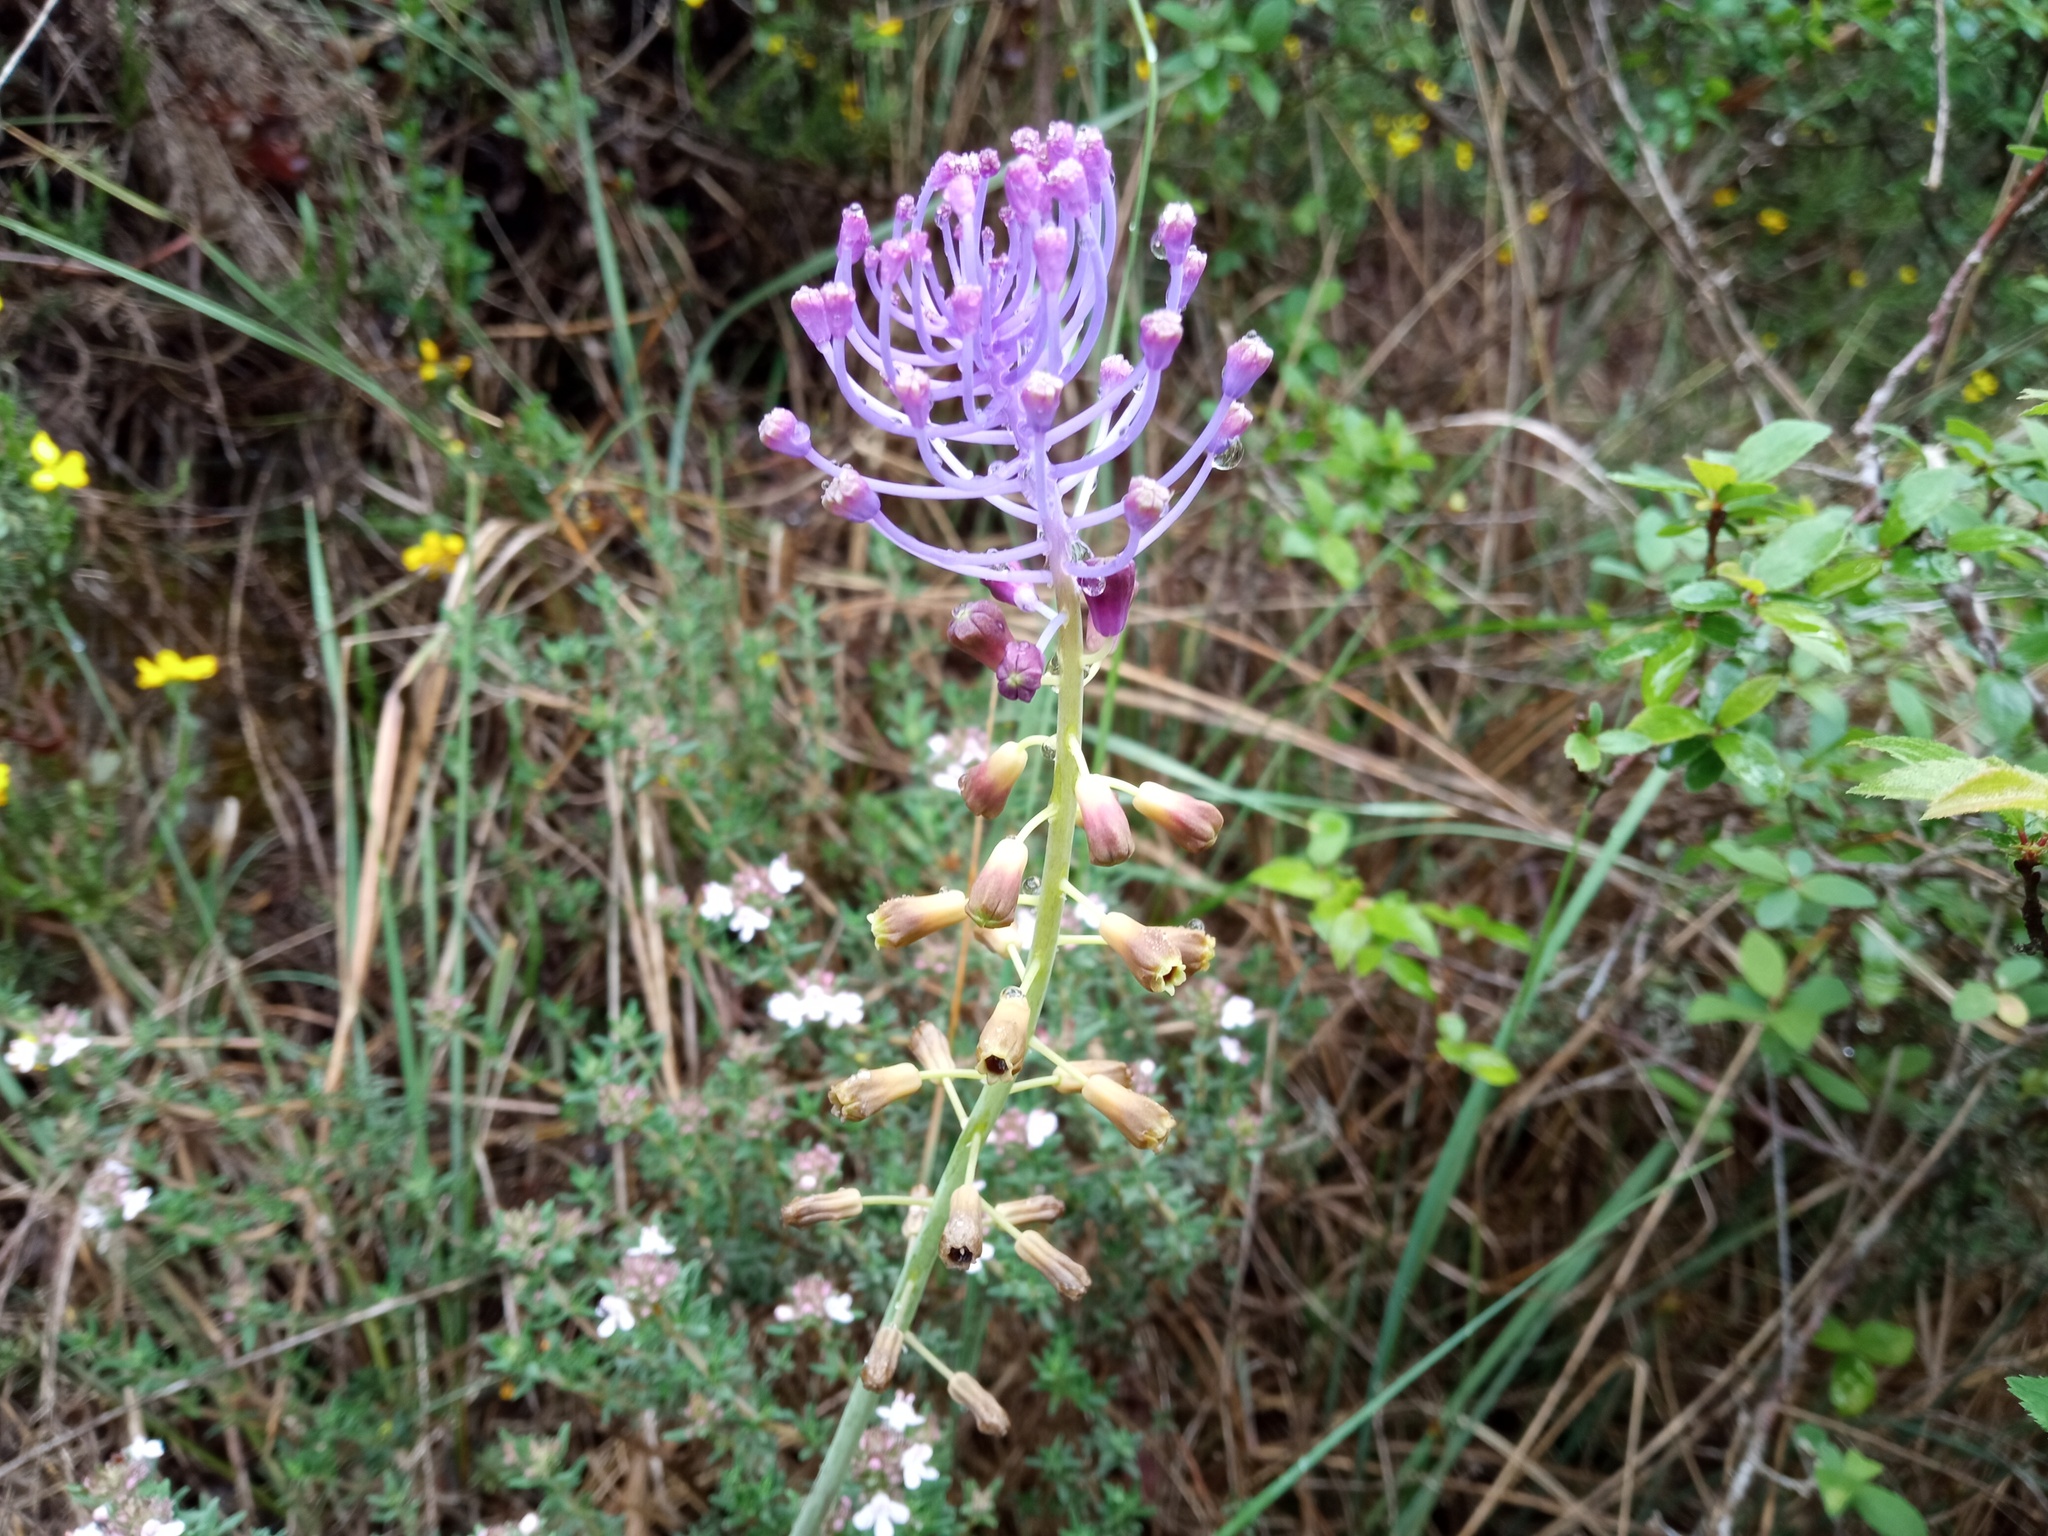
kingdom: Plantae
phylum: Tracheophyta
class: Liliopsida
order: Asparagales
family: Asparagaceae
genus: Muscari
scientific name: Muscari comosum
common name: Tassel hyacinth
